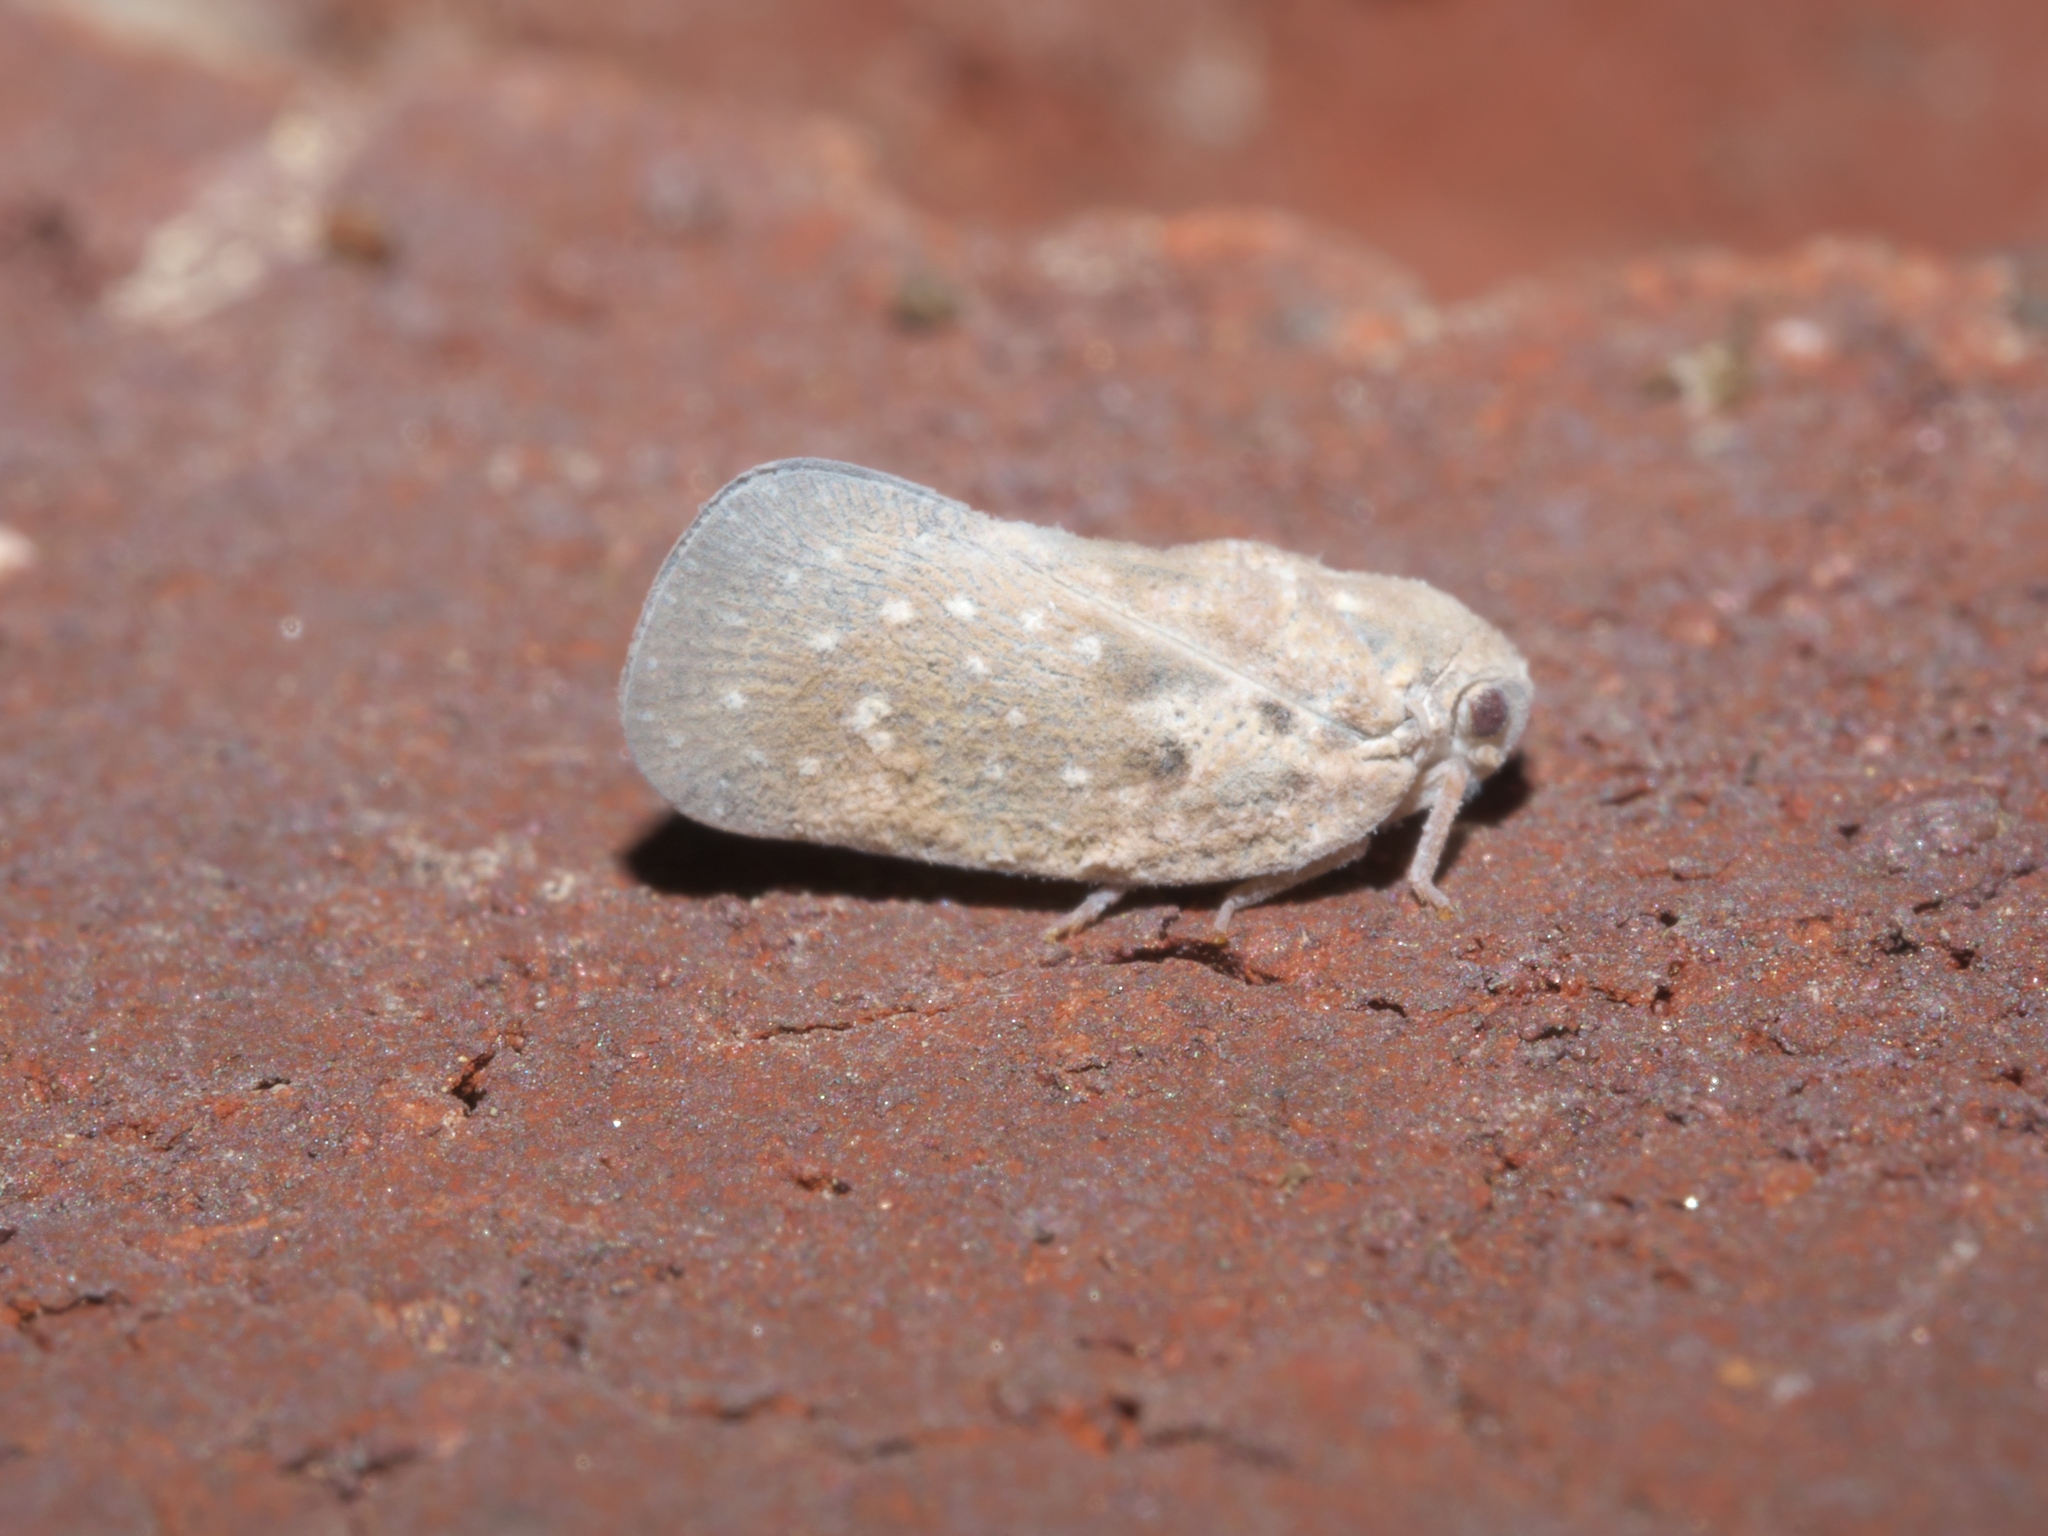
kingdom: Animalia
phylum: Arthropoda
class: Insecta
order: Hemiptera
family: Flatidae
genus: Metcalfa
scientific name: Metcalfa pruinosa
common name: Citrus flatid planthopper
